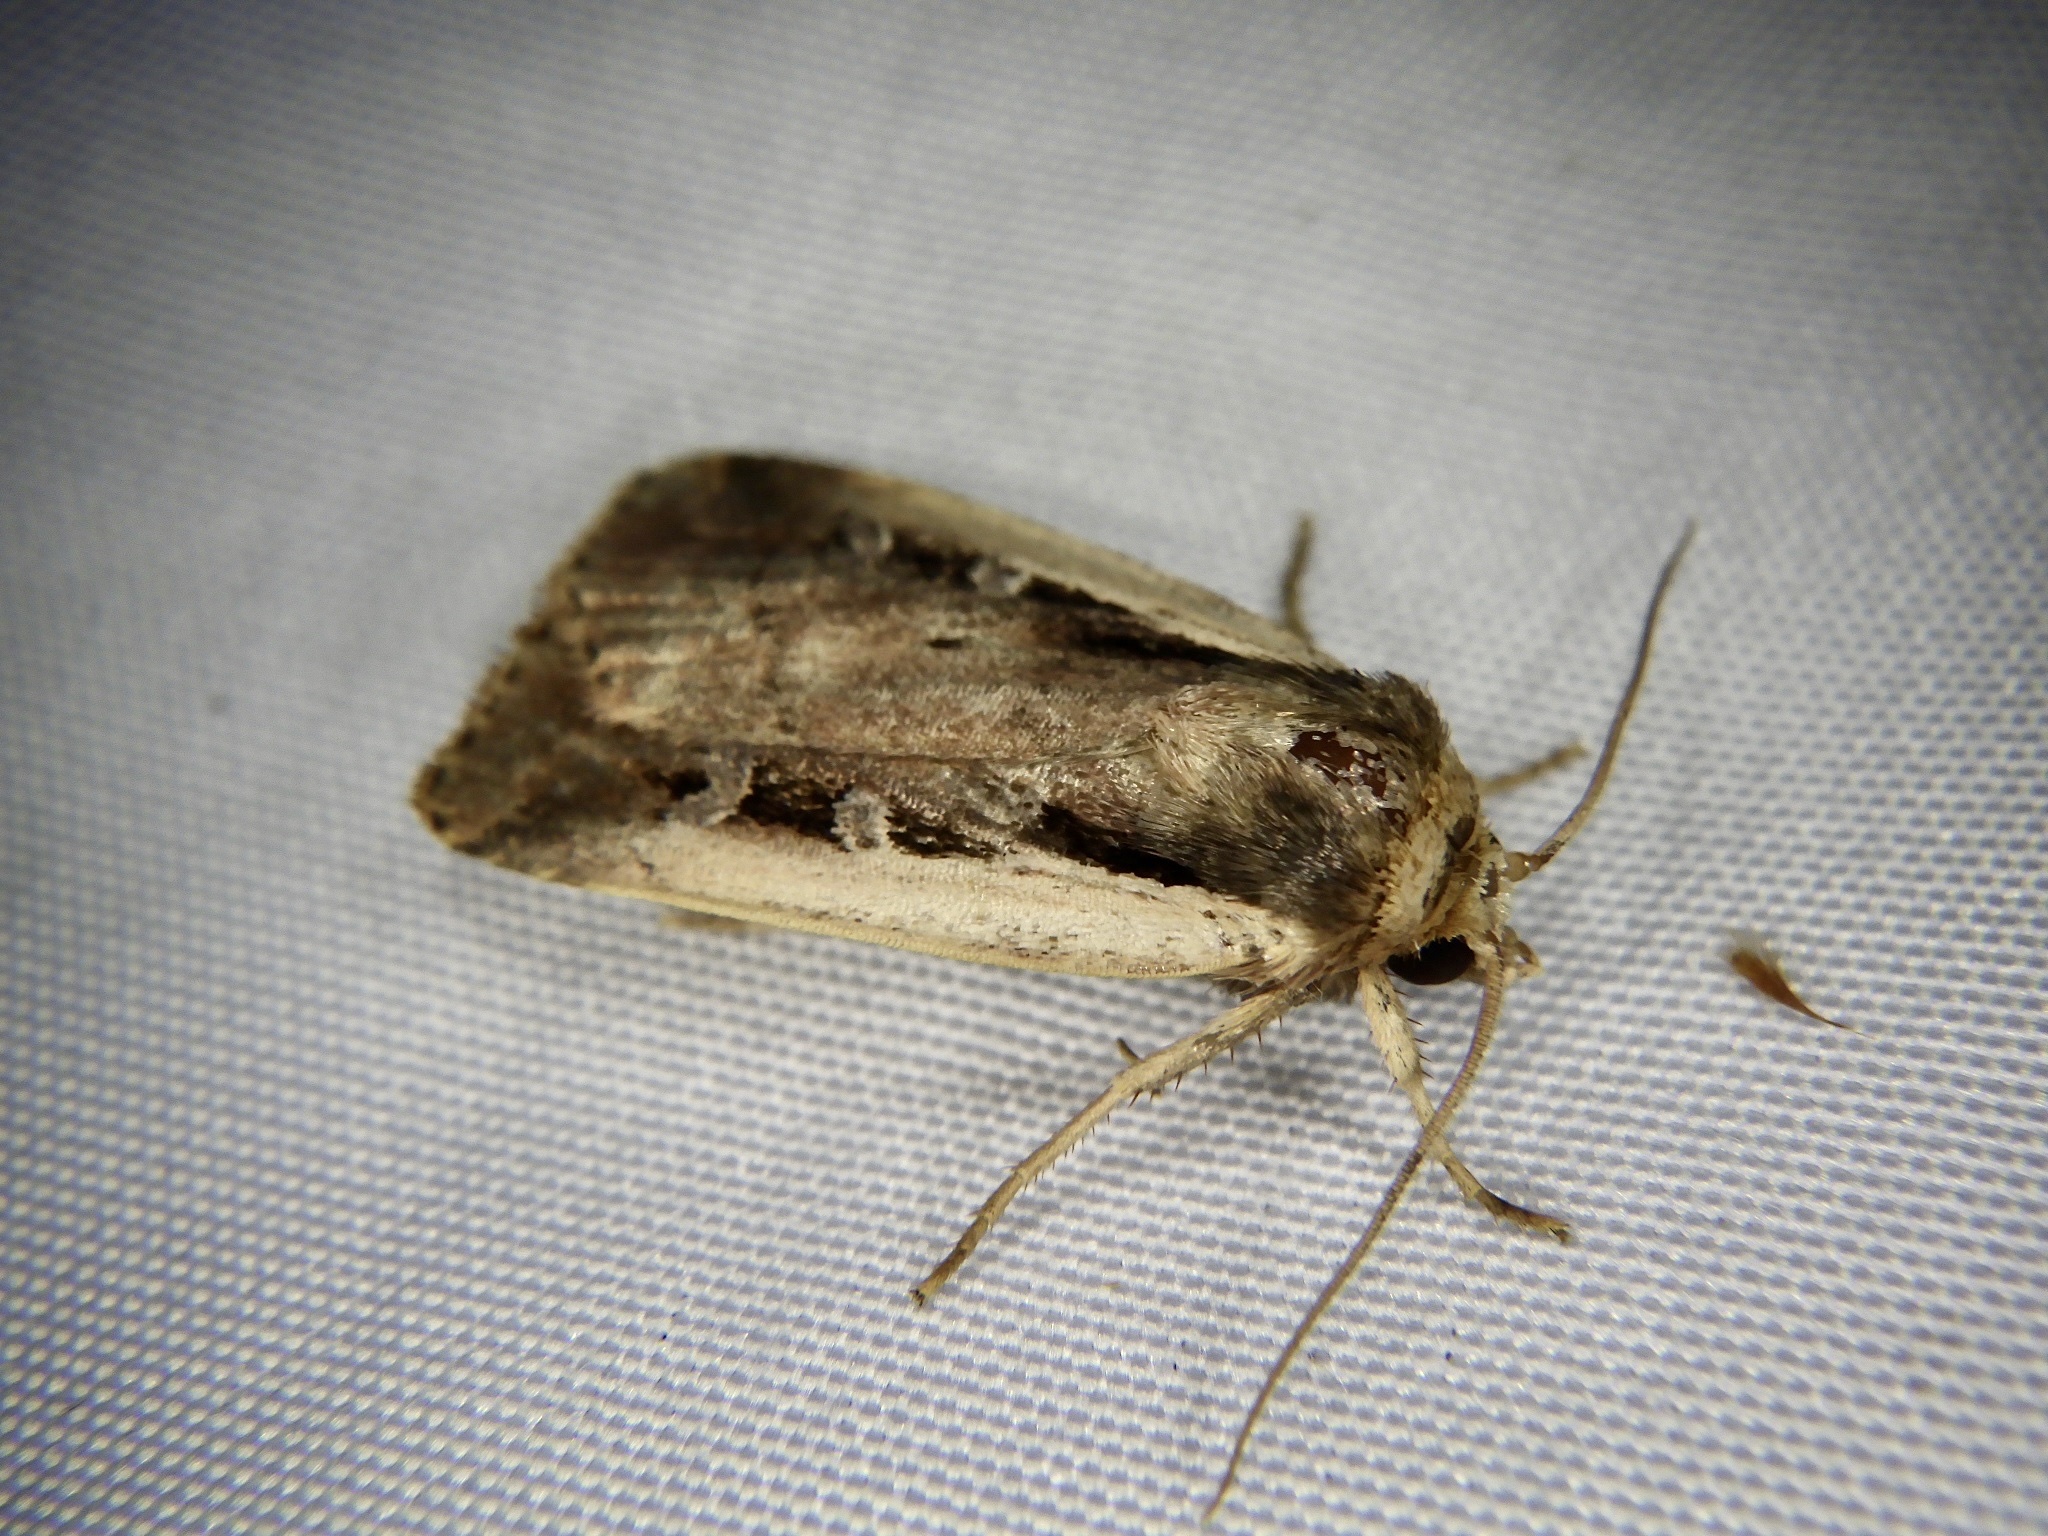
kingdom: Animalia
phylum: Arthropoda
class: Insecta
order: Lepidoptera
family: Noctuidae
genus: Ochropleura
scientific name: Ochropleura plecta
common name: Flame shoulder
